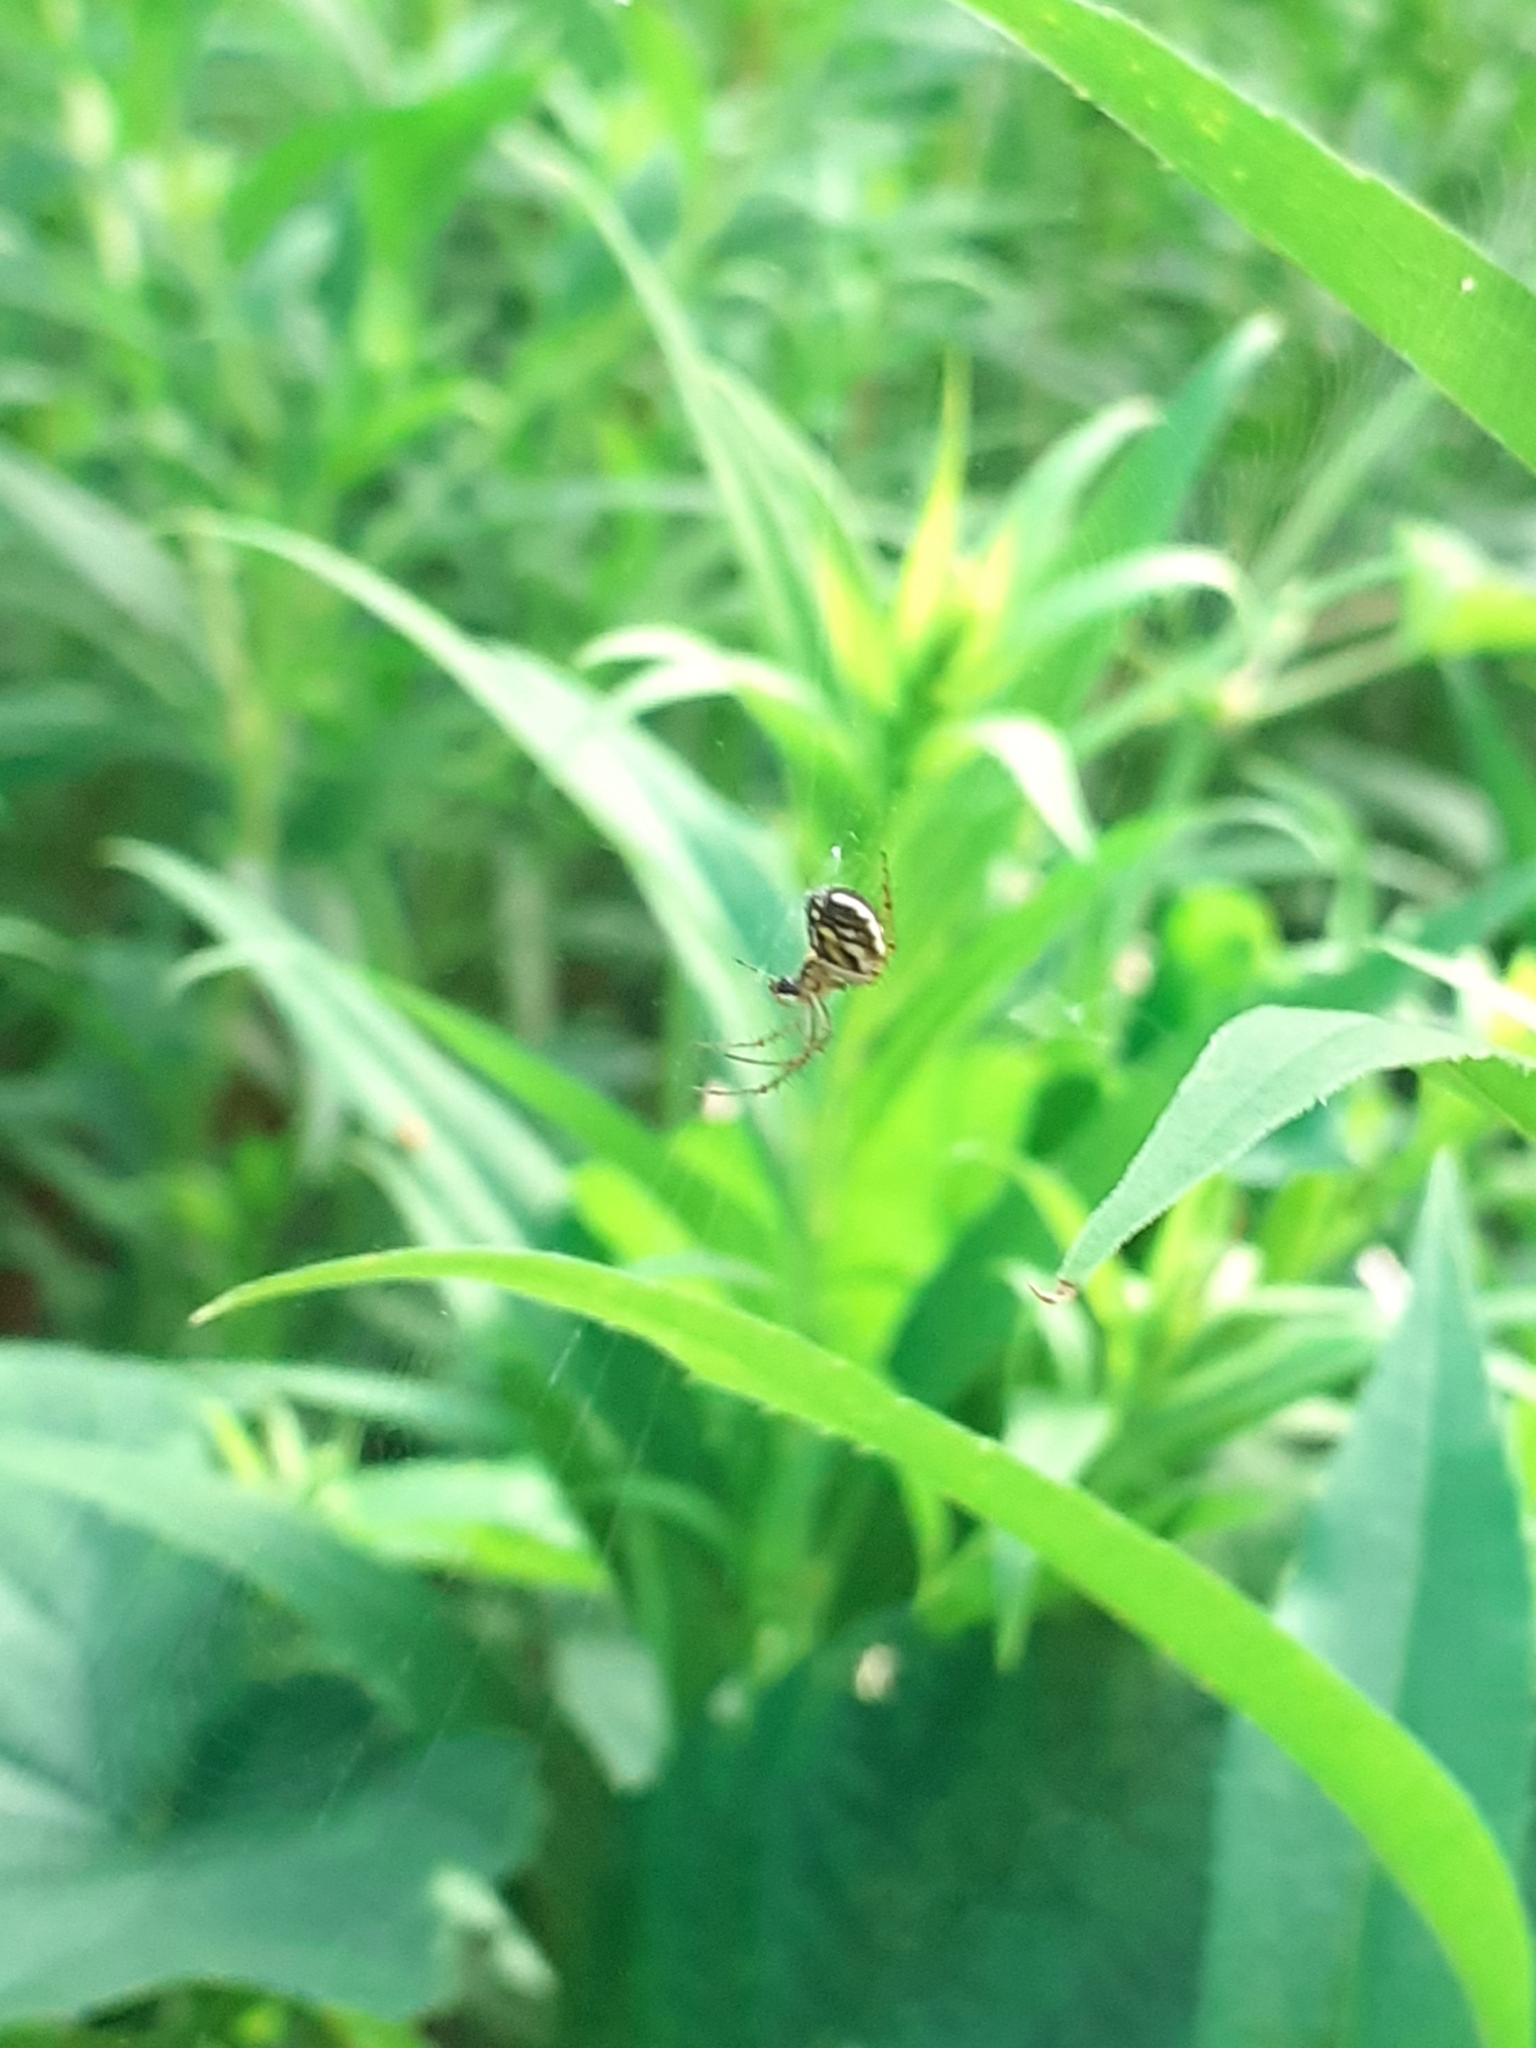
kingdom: Animalia
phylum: Arthropoda
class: Arachnida
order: Araneae
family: Araneidae
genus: Mangora
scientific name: Mangora acalypha
